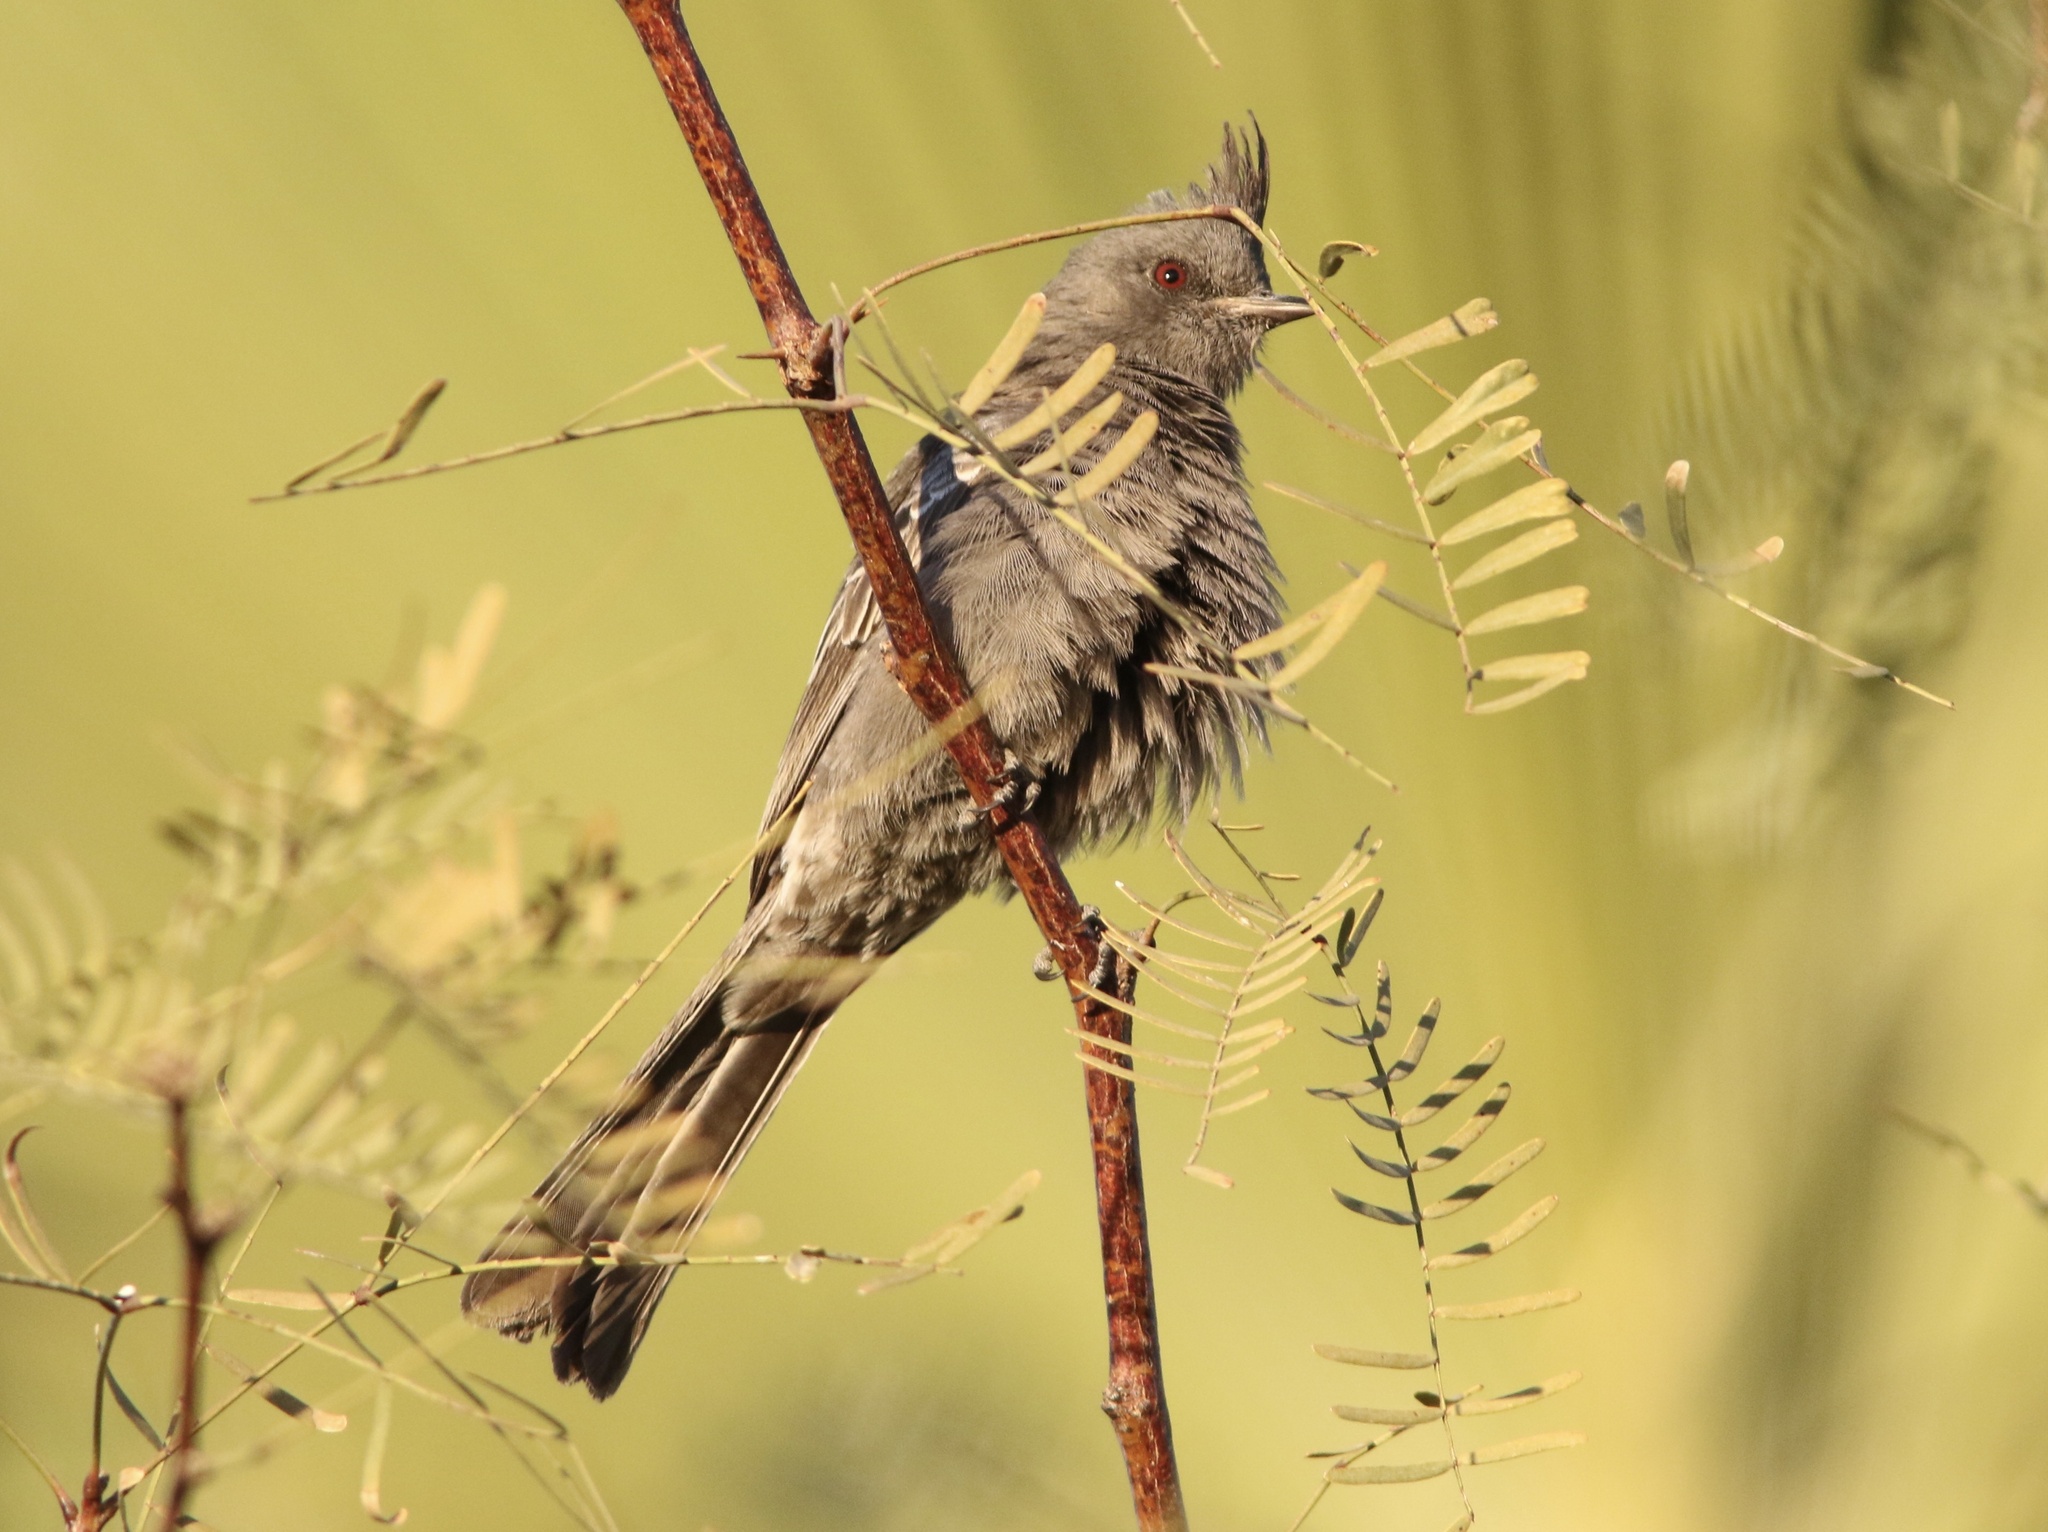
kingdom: Animalia
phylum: Chordata
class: Aves
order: Passeriformes
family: Ptilogonatidae
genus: Phainopepla
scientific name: Phainopepla nitens
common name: Phainopepla
